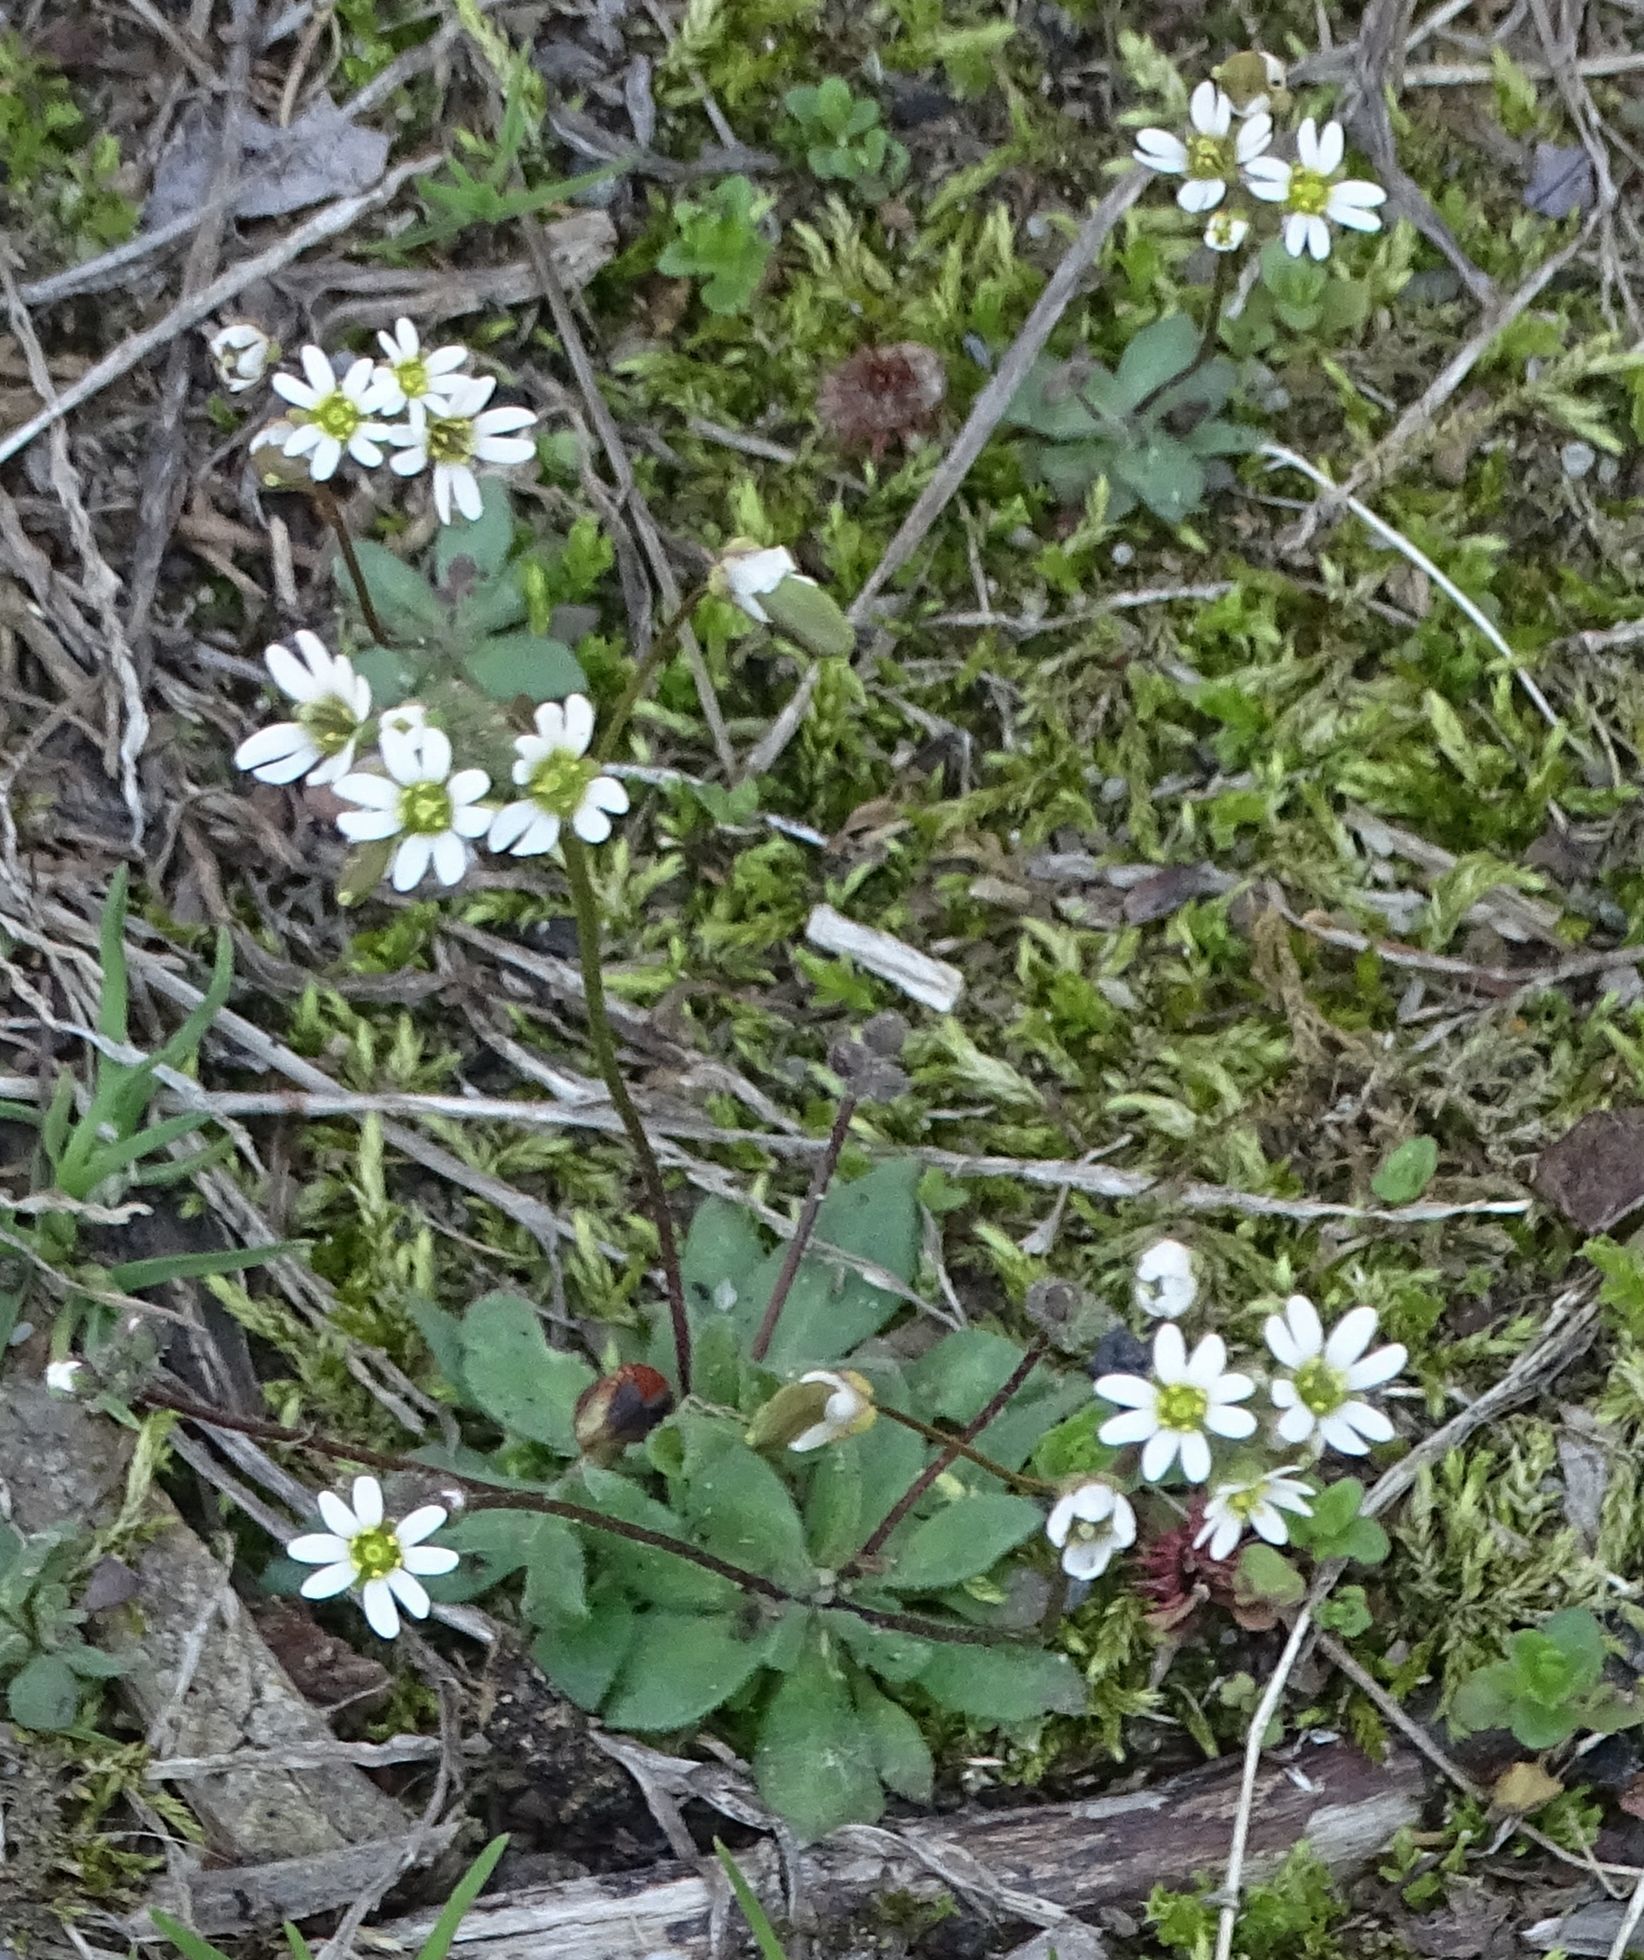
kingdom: Plantae
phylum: Tracheophyta
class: Magnoliopsida
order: Brassicales
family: Brassicaceae
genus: Draba
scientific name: Draba verna
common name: Spring draba
